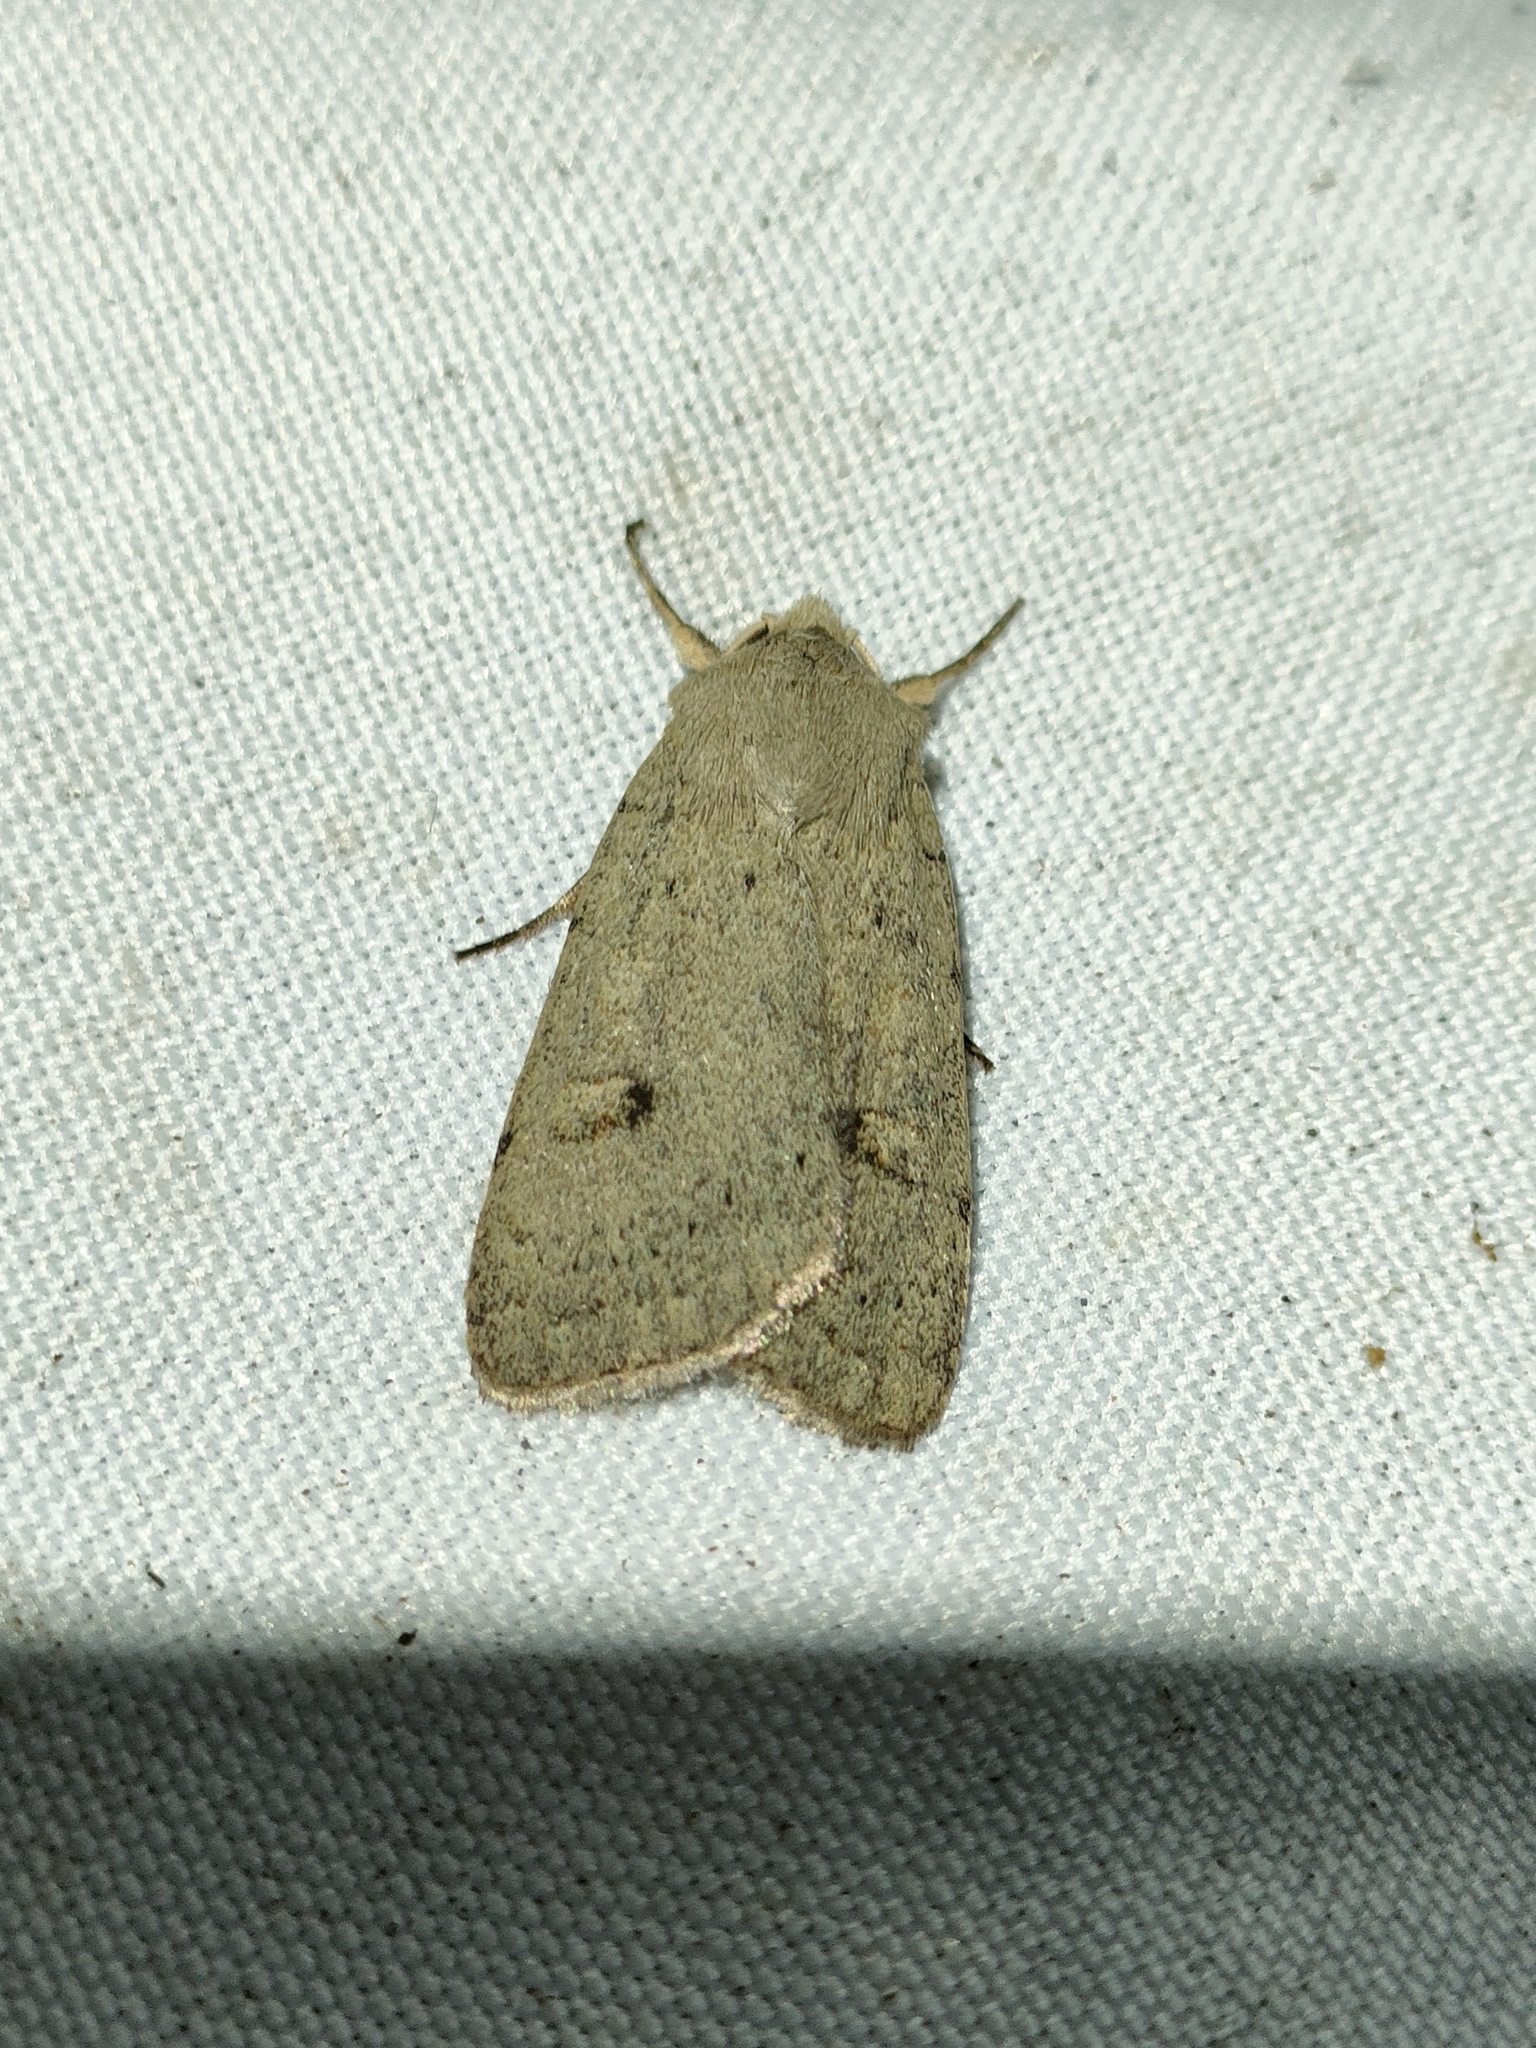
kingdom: Animalia
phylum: Arthropoda
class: Insecta
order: Lepidoptera
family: Noctuidae
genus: Xestia
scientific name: Xestia castanea
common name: Neglected rustic
